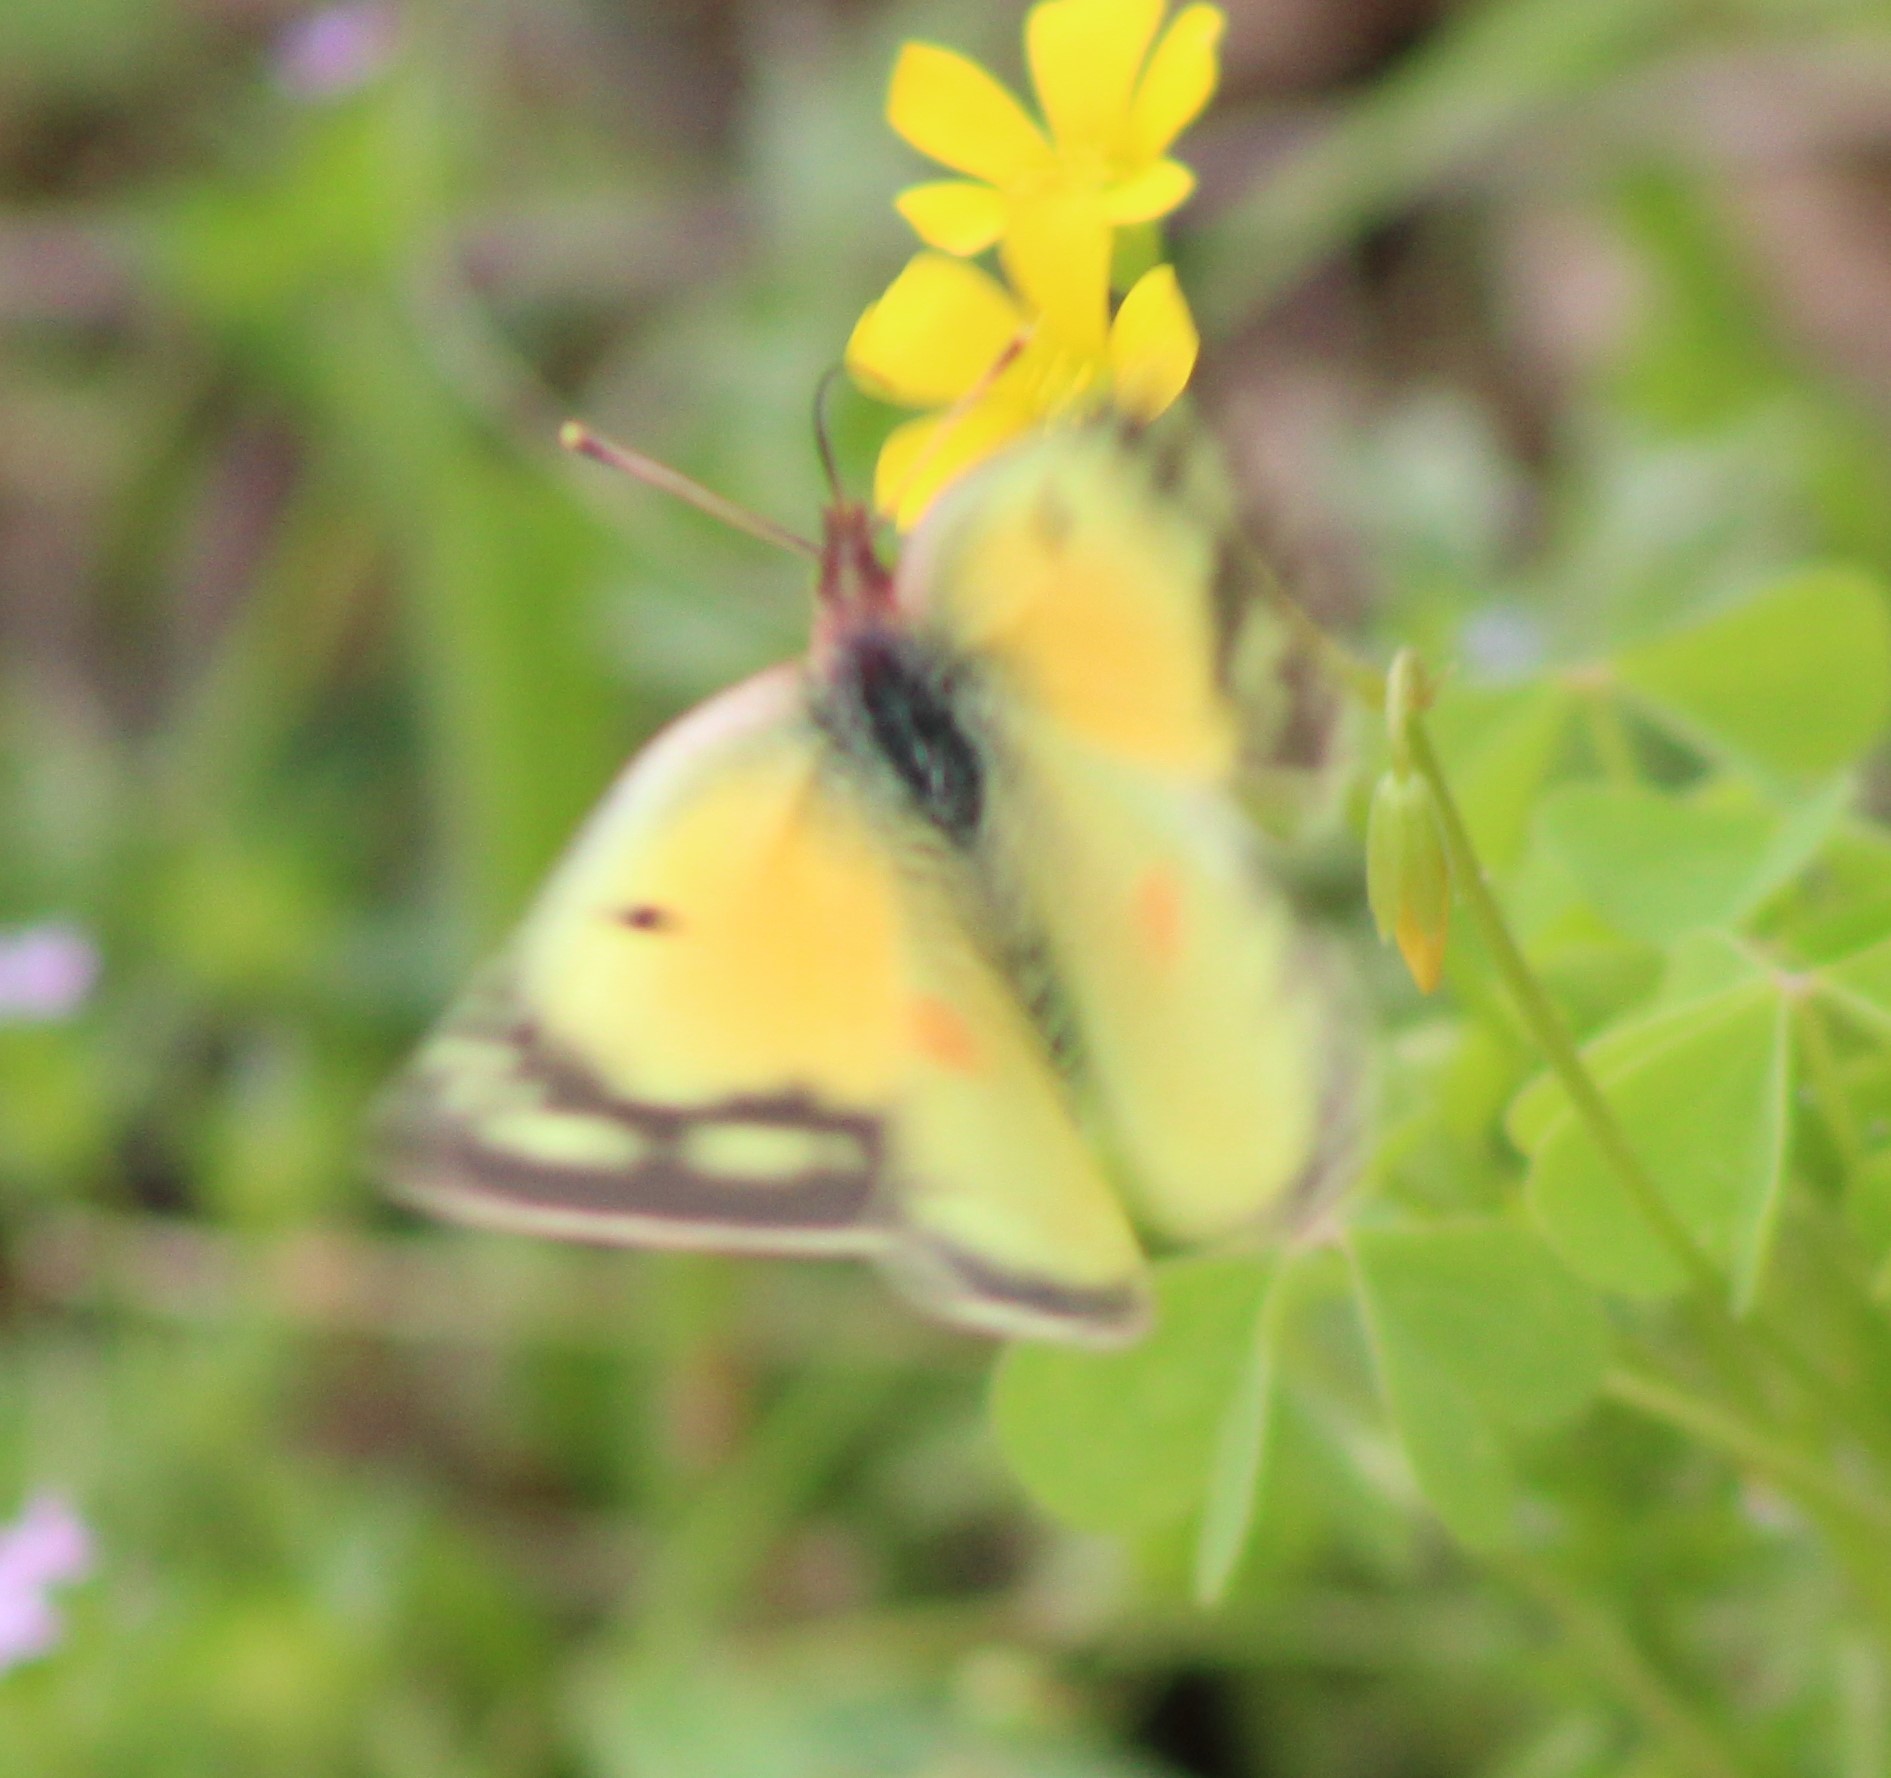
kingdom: Animalia
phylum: Arthropoda
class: Insecta
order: Lepidoptera
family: Pieridae
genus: Colias
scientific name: Colias eurytheme
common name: Alfalfa butterfly
